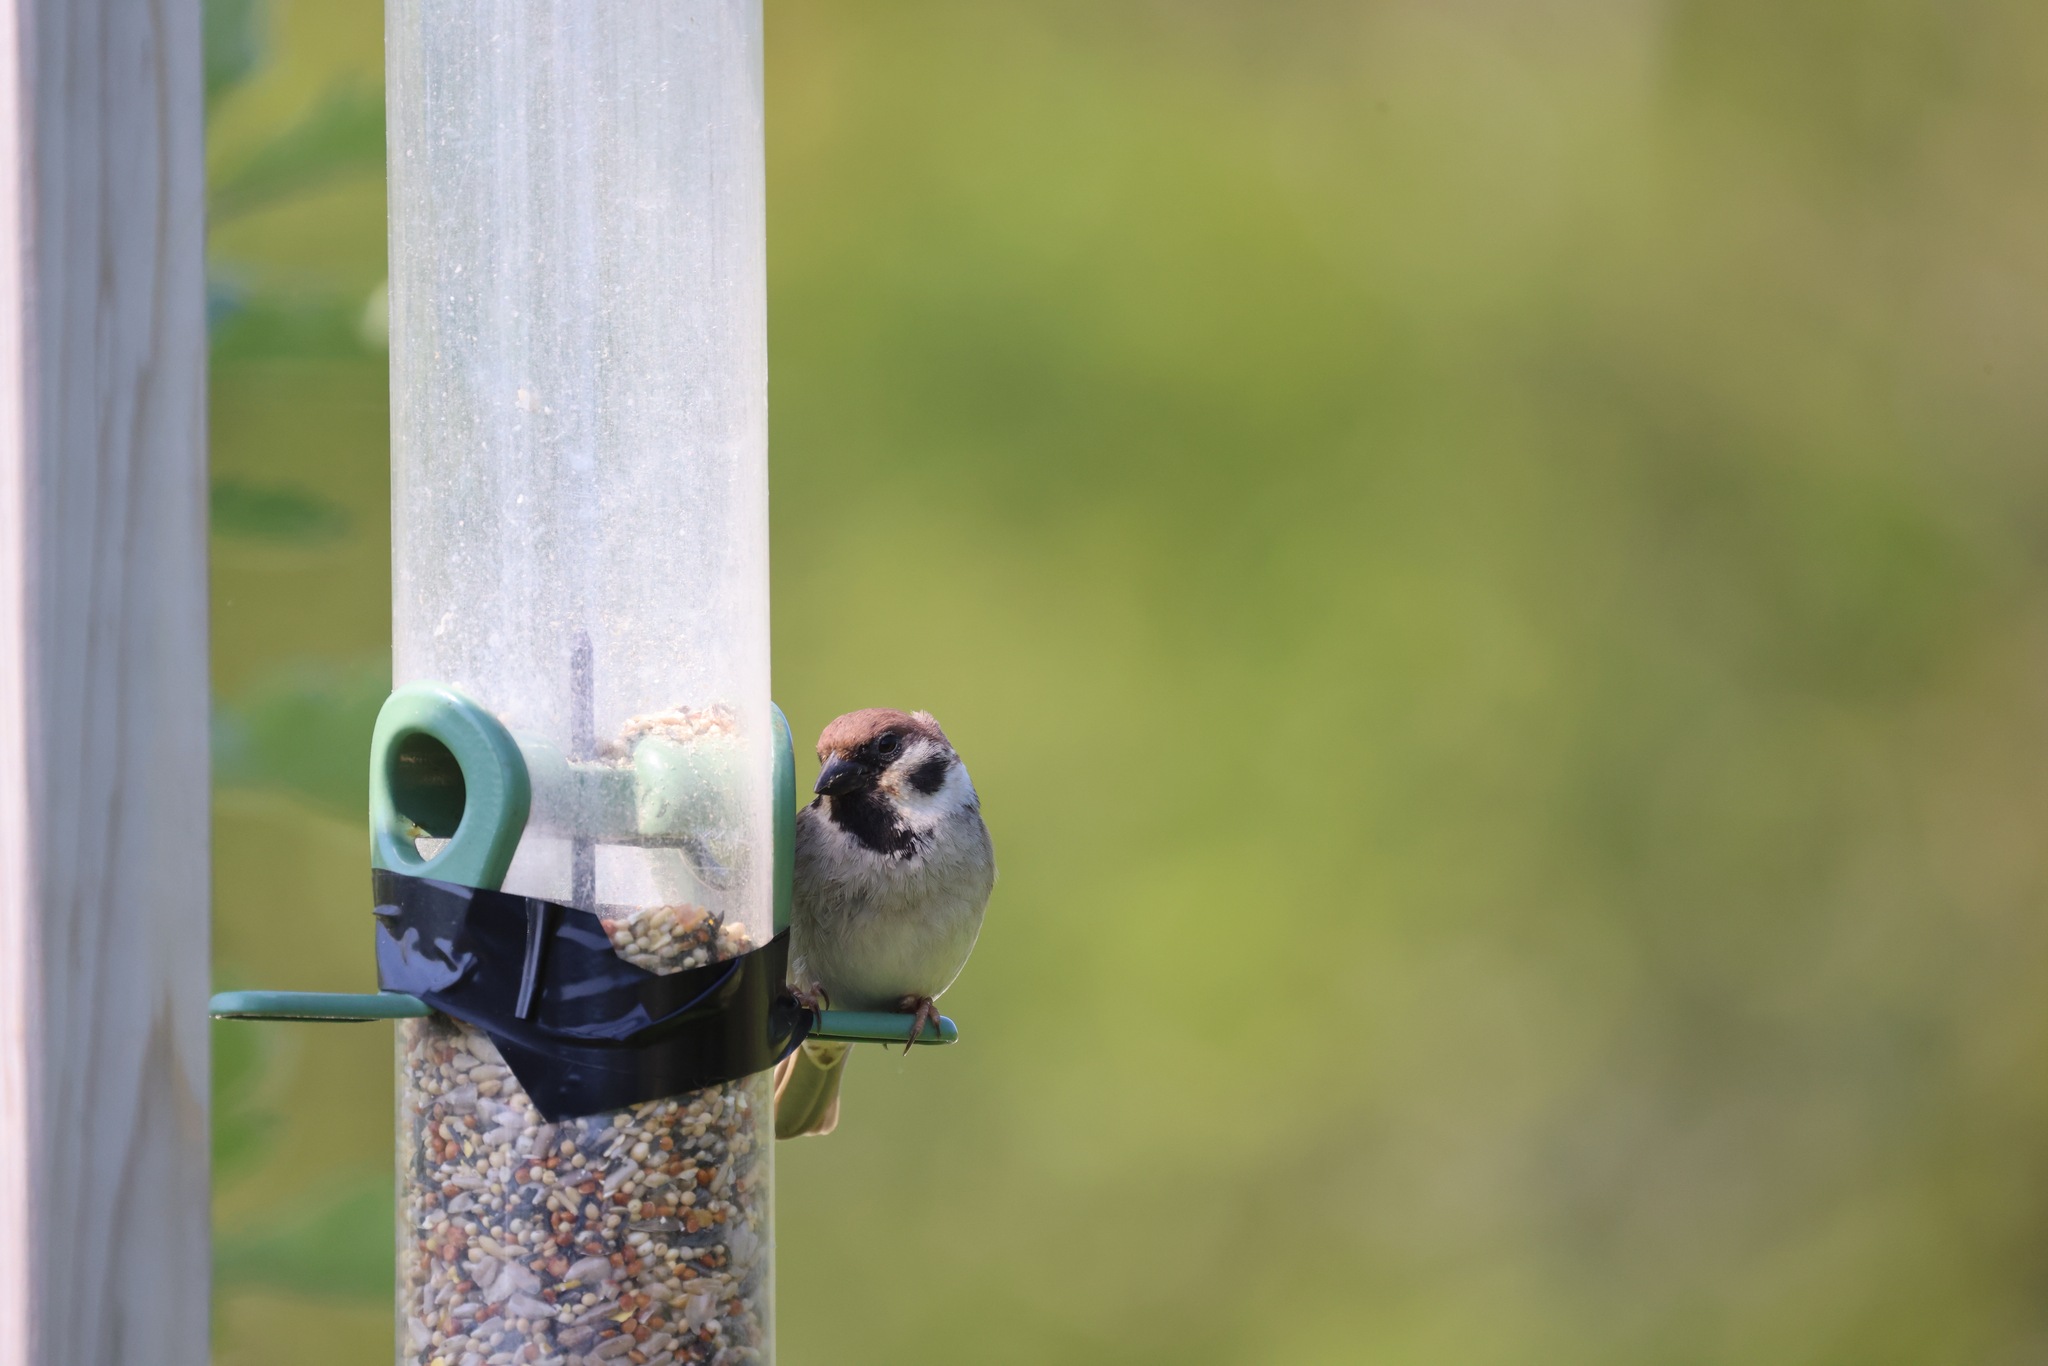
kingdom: Animalia
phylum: Chordata
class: Aves
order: Passeriformes
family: Passeridae
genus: Passer
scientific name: Passer montanus
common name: Eurasian tree sparrow
